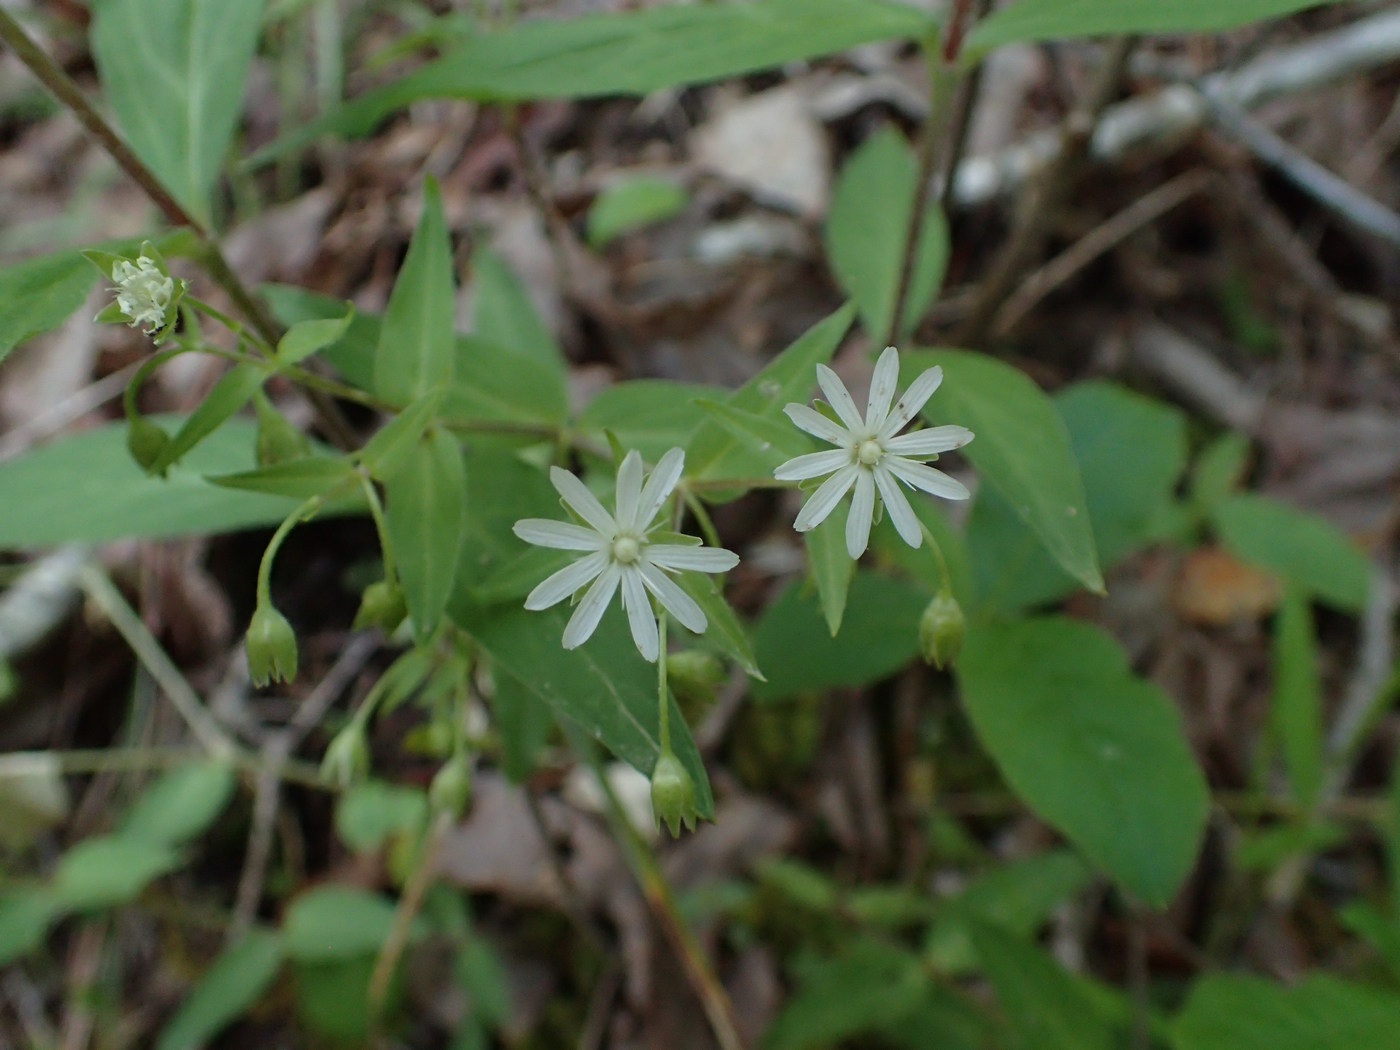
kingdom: Plantae
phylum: Tracheophyta
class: Magnoliopsida
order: Caryophyllales
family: Caryophyllaceae
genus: Stellaria
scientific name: Stellaria pubera
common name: Star chickweed
